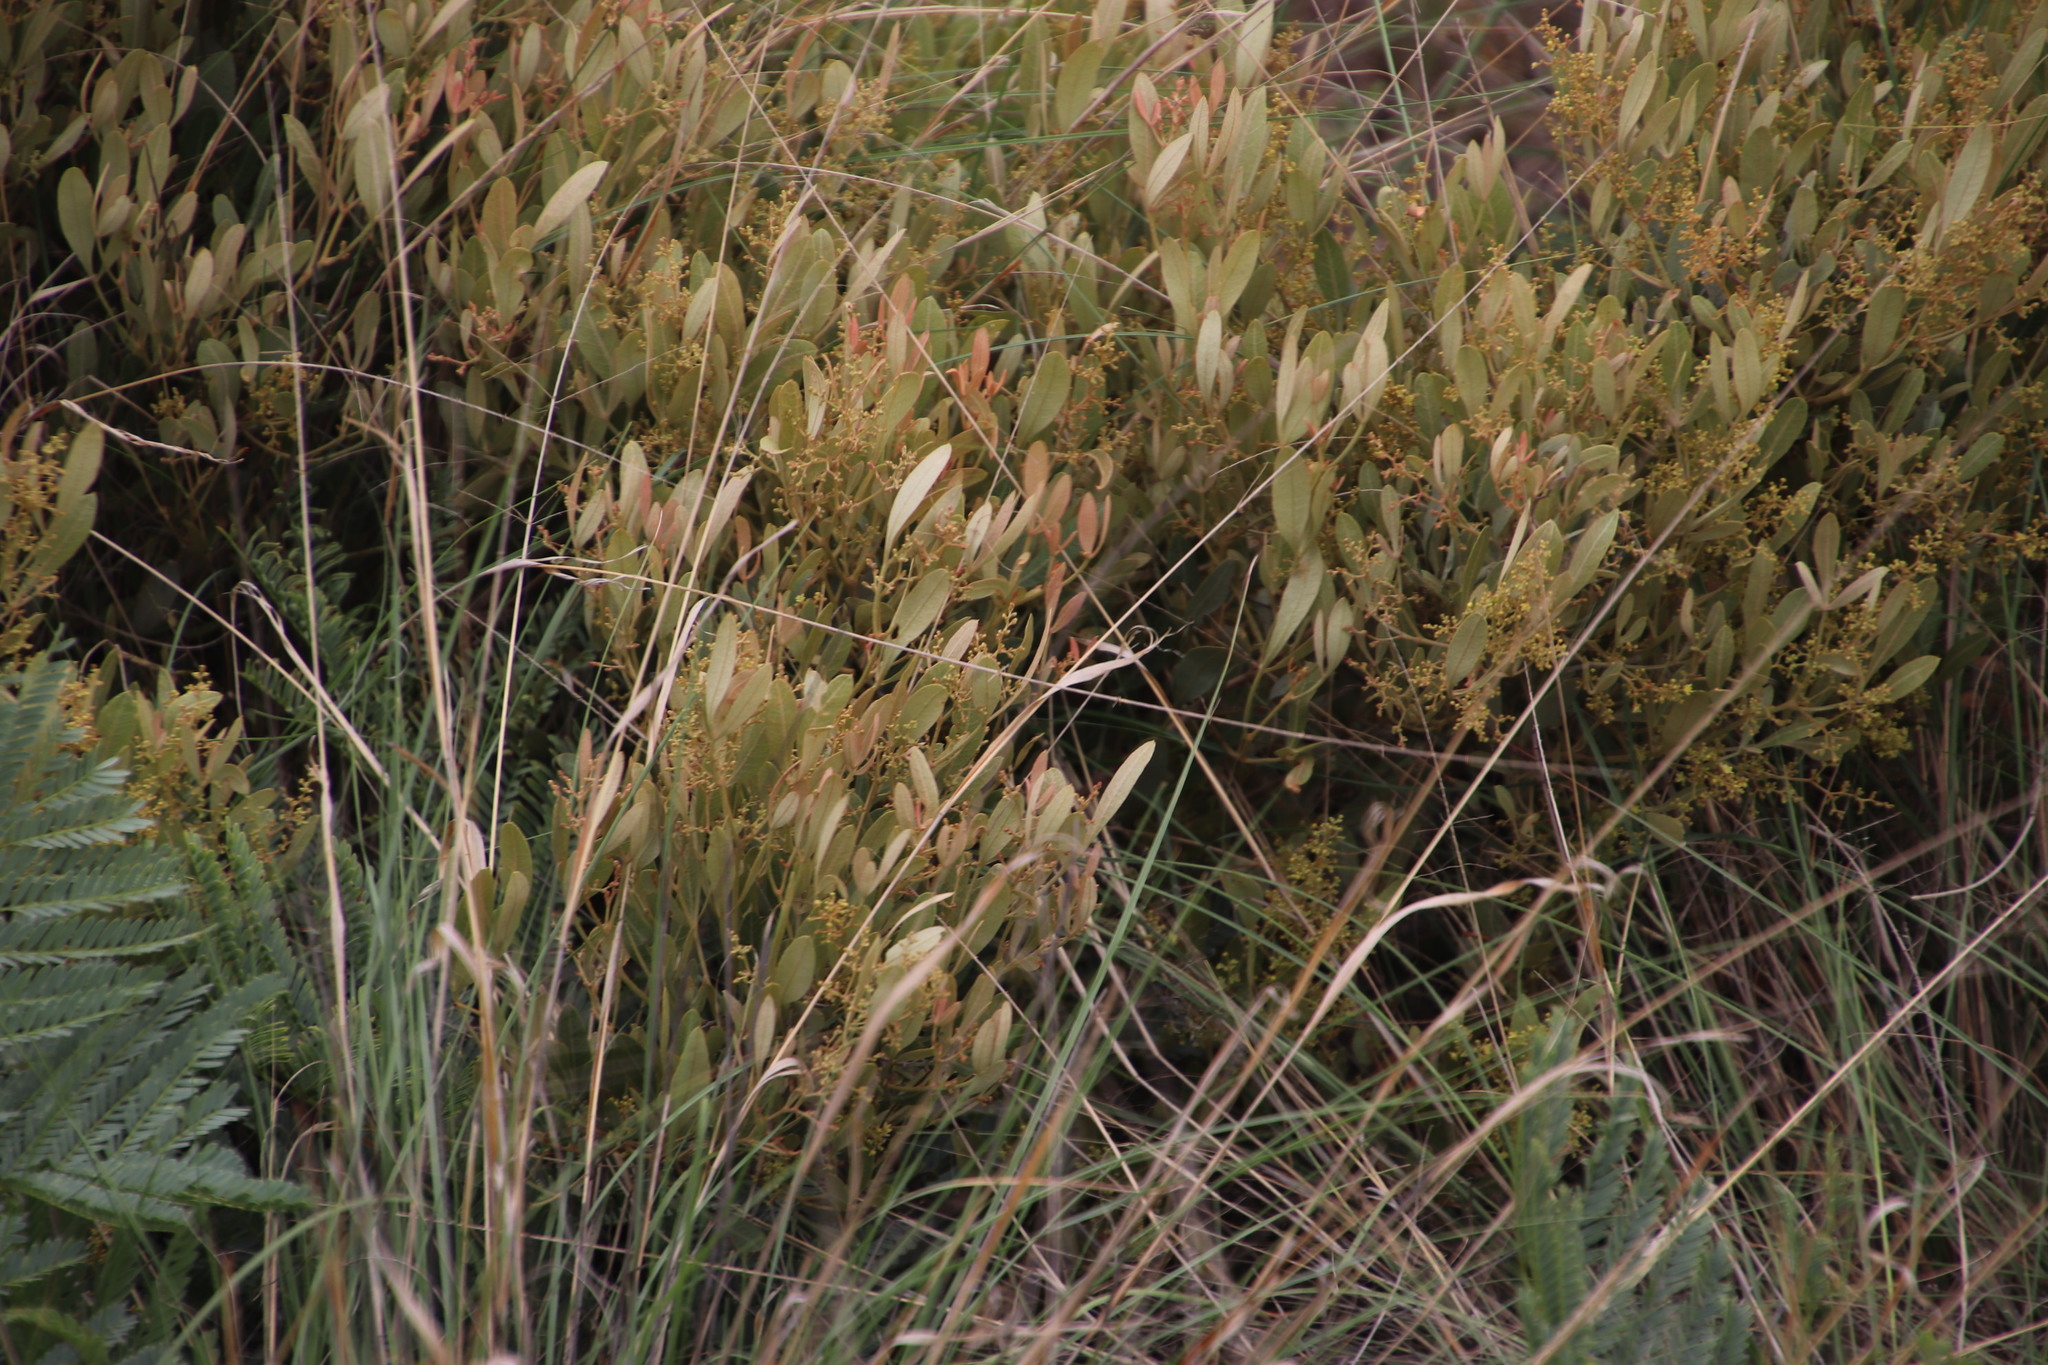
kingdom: Plantae
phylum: Tracheophyta
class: Magnoliopsida
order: Sapindales
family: Anacardiaceae
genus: Searsia
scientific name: Searsia magalismontana
